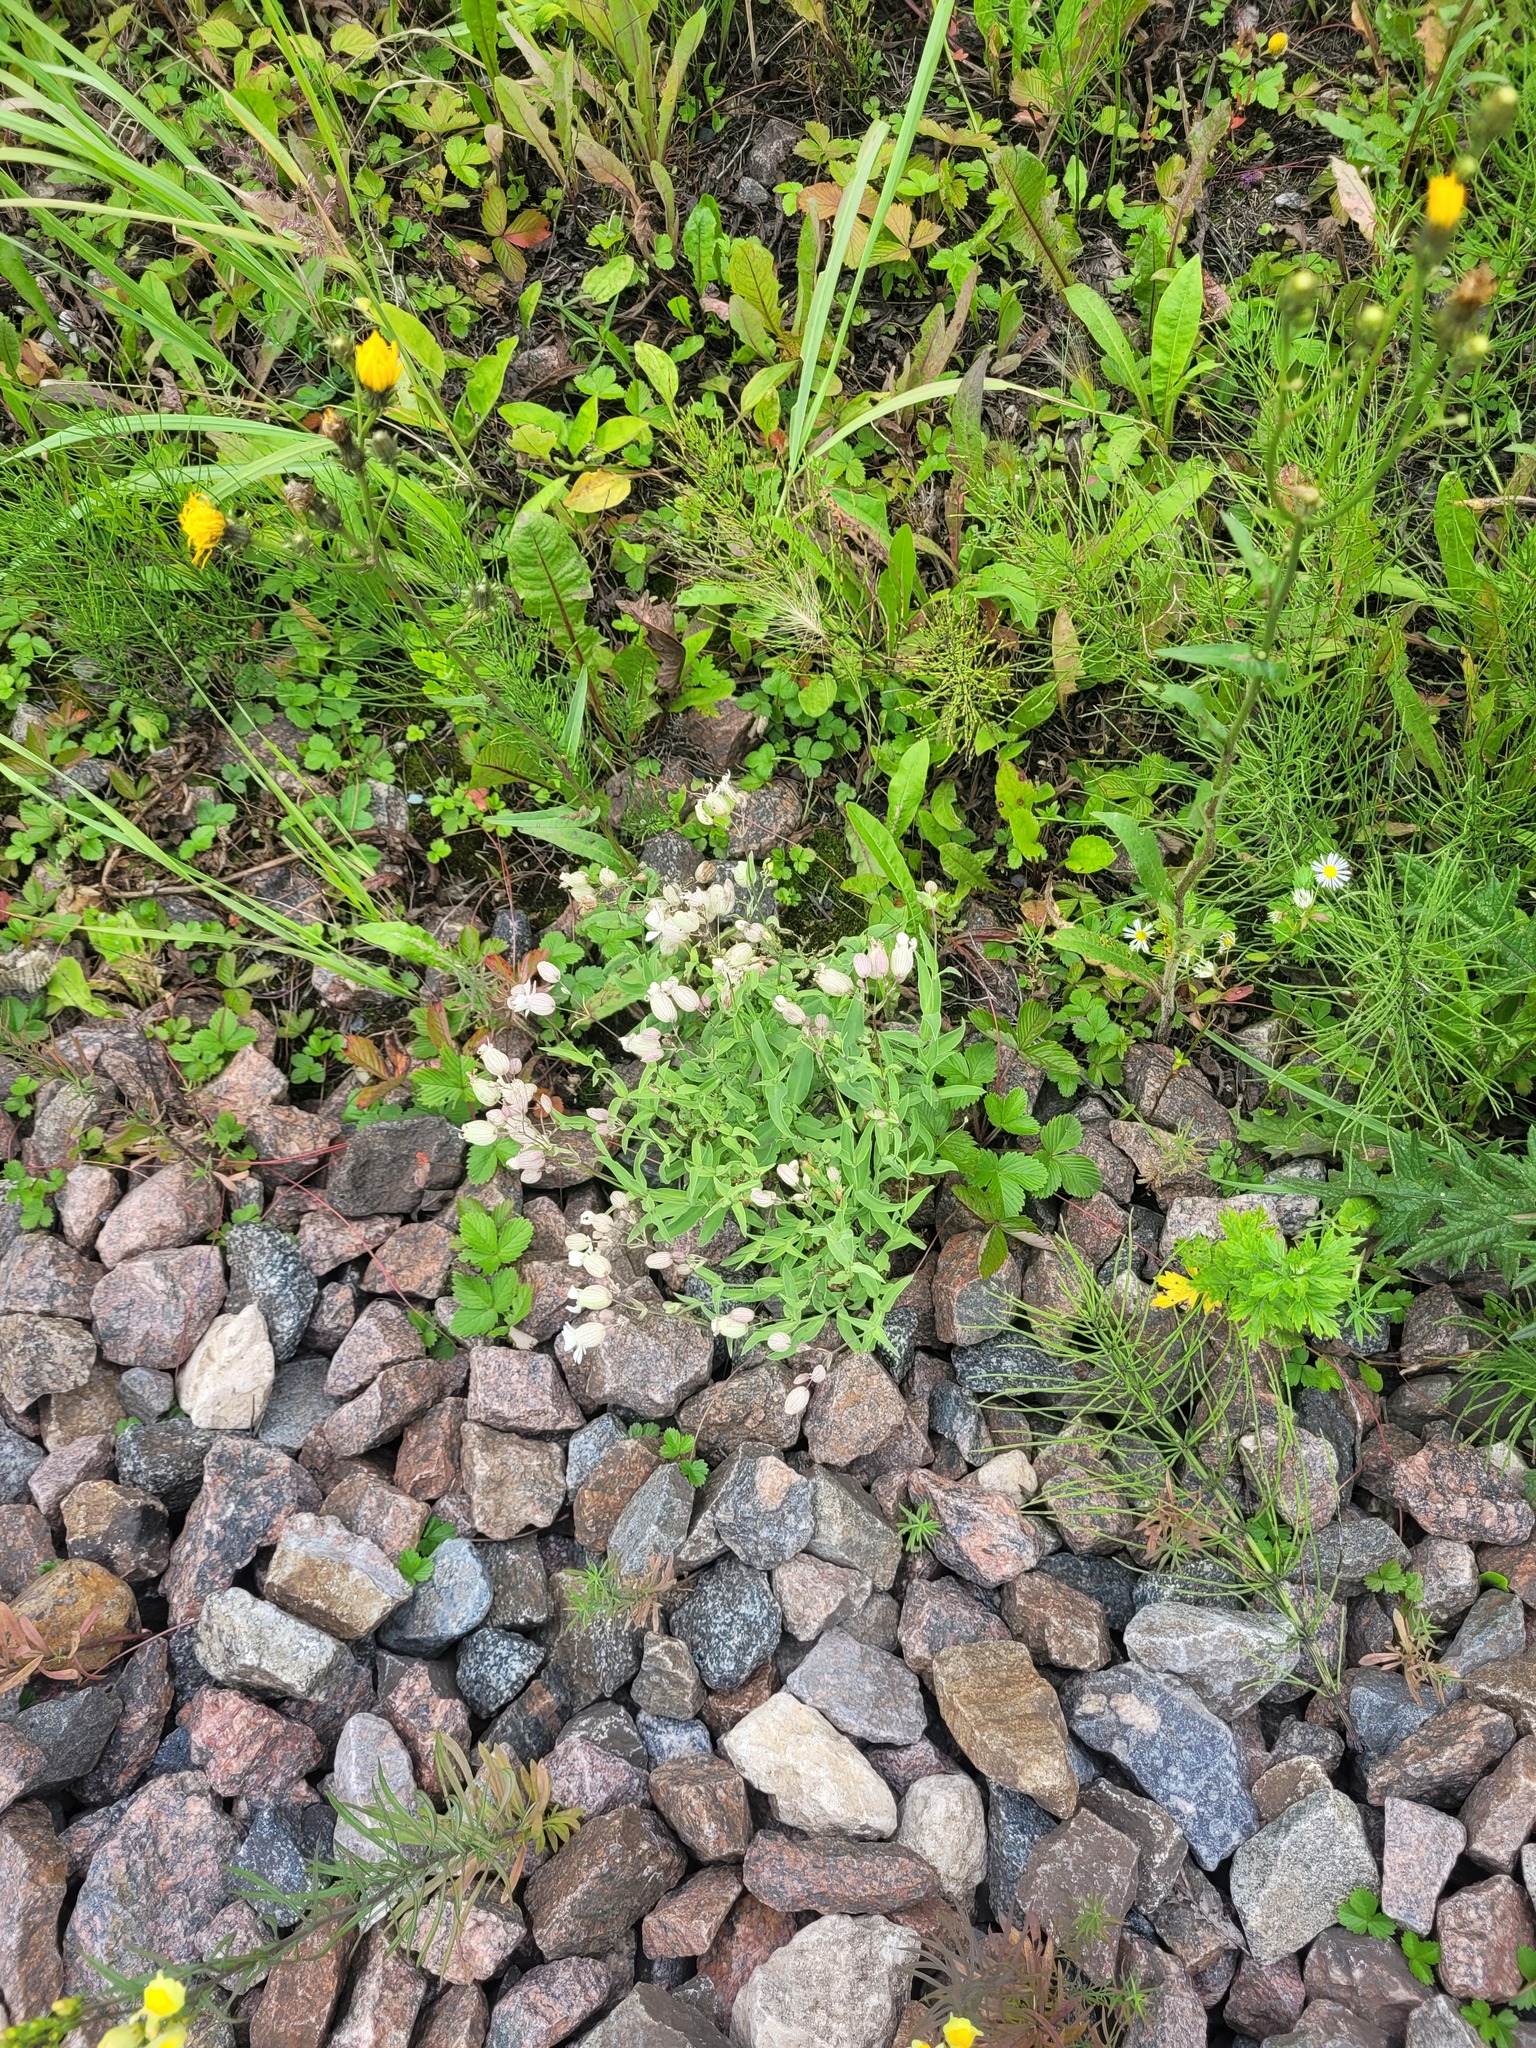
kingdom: Plantae
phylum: Tracheophyta
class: Magnoliopsida
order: Caryophyllales
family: Caryophyllaceae
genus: Silene
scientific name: Silene vulgaris
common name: Bladder campion
